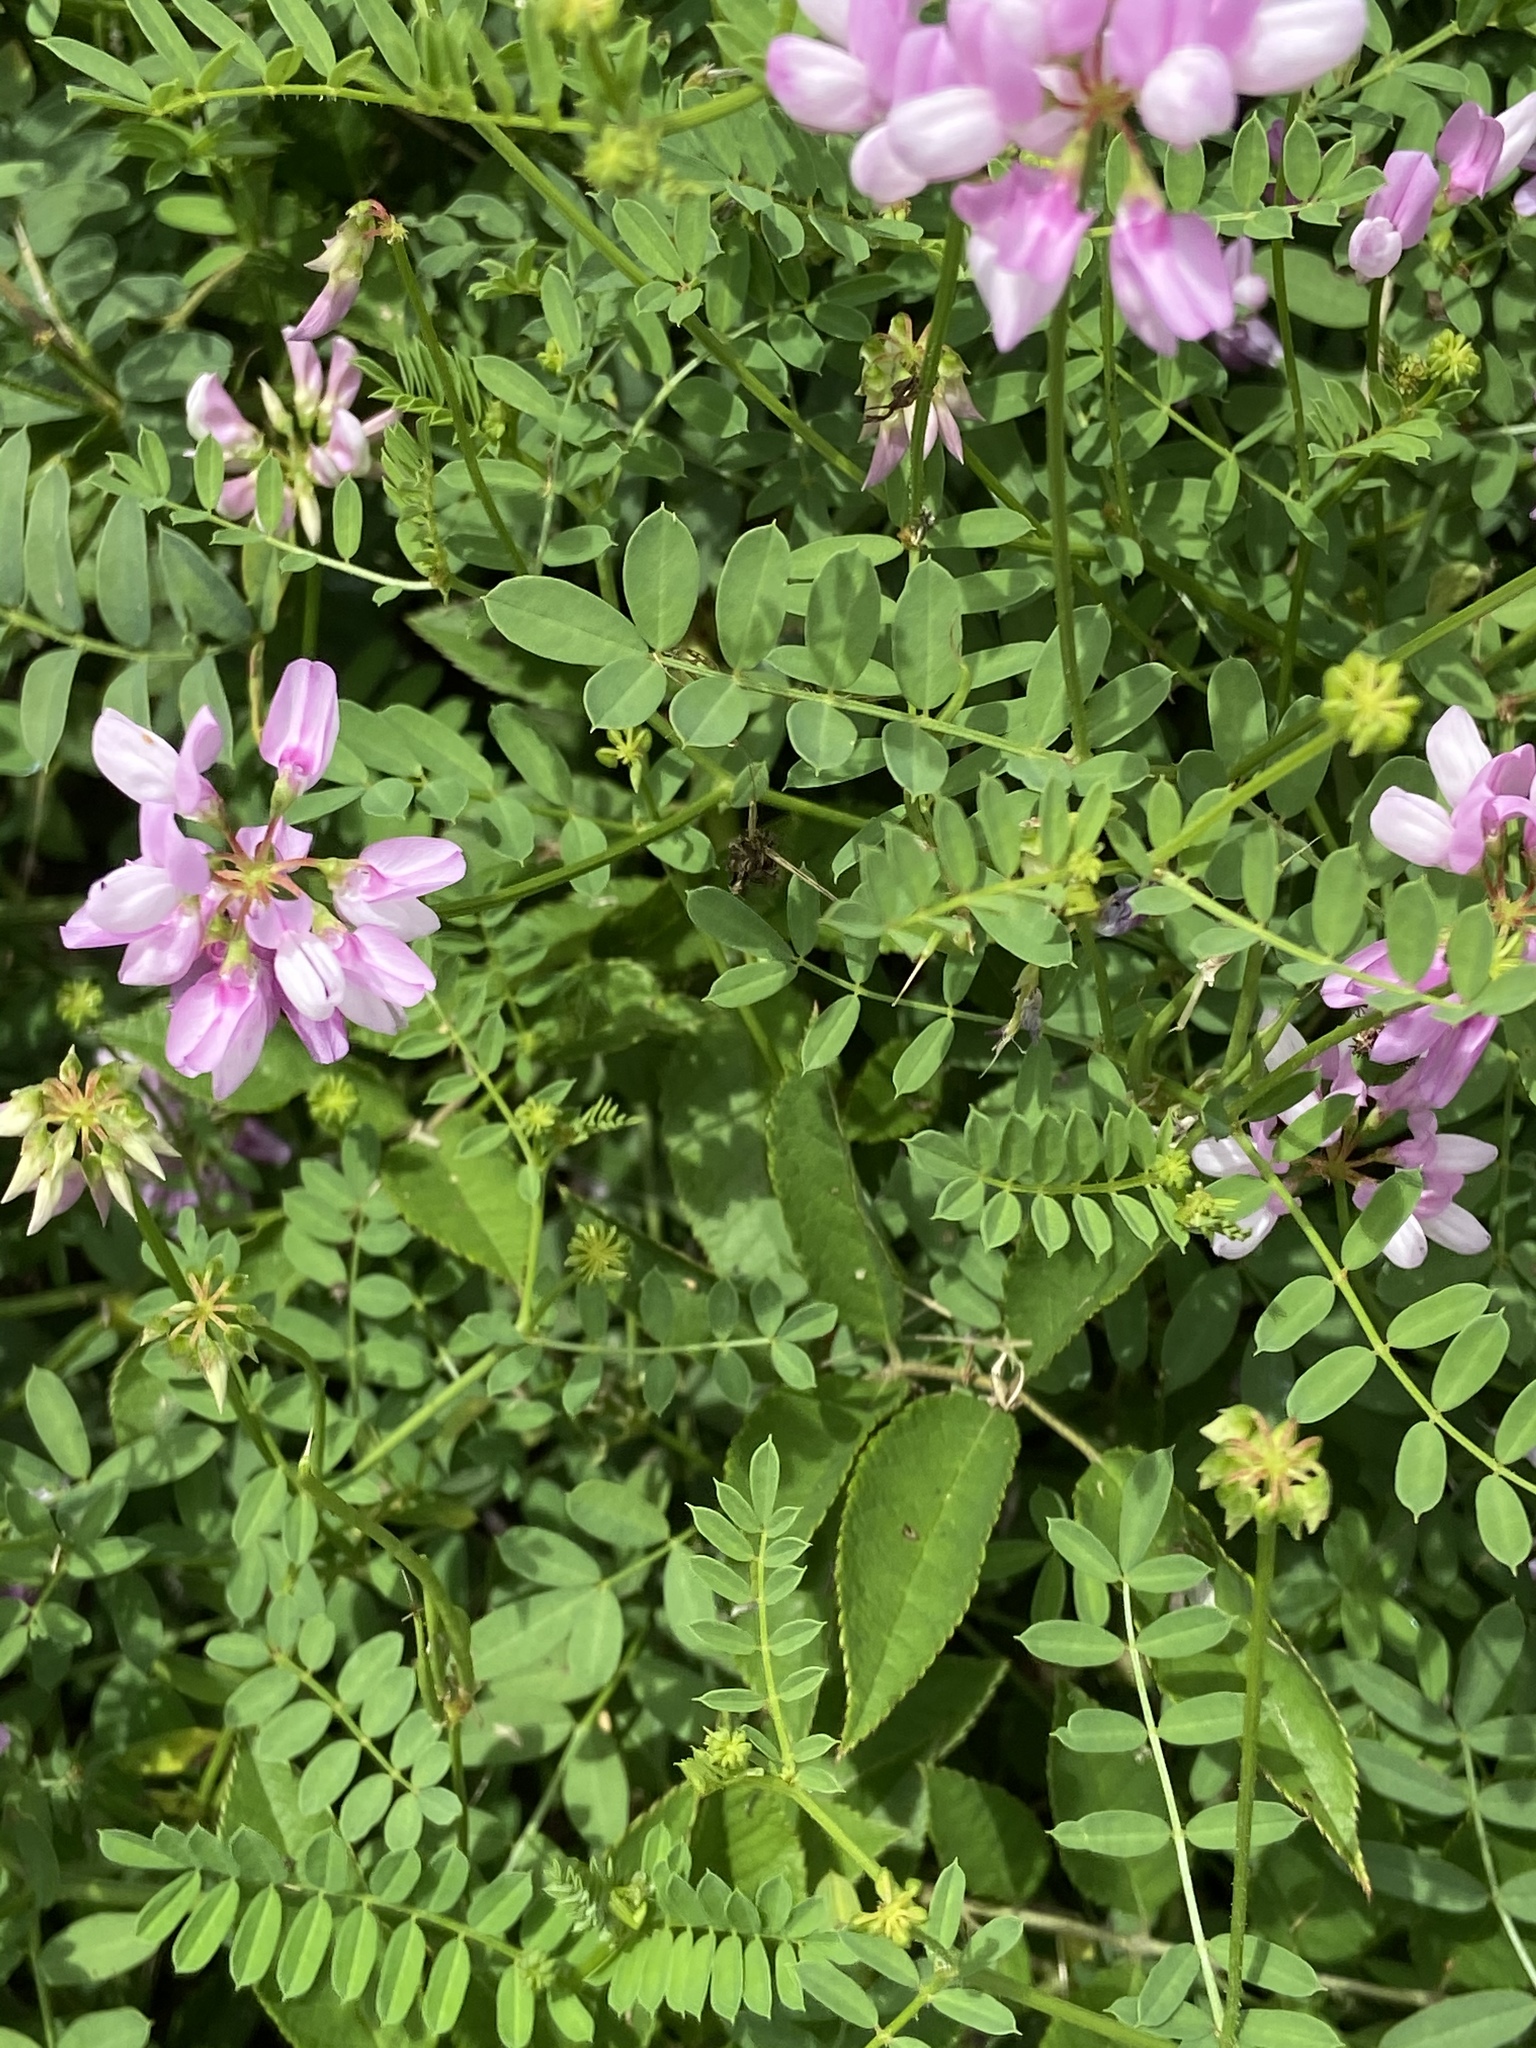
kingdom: Plantae
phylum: Tracheophyta
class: Magnoliopsida
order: Fabales
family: Fabaceae
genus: Coronilla
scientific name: Coronilla varia
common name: Crownvetch
